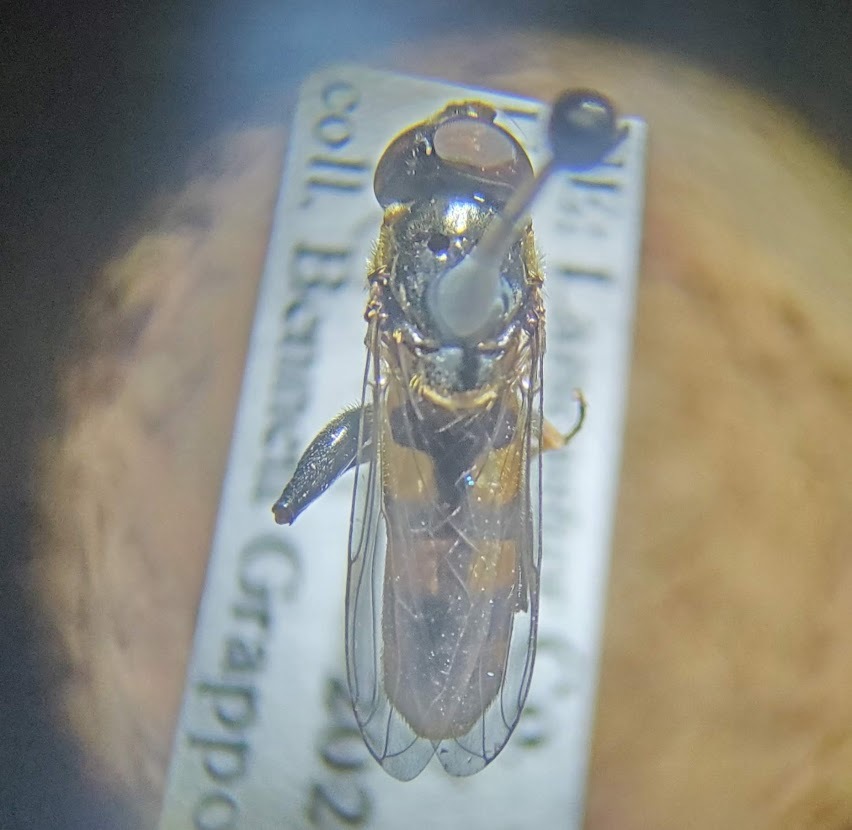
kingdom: Animalia
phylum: Arthropoda
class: Insecta
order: Diptera
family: Syrphidae
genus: Tropidia
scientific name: Tropidia albistylum
